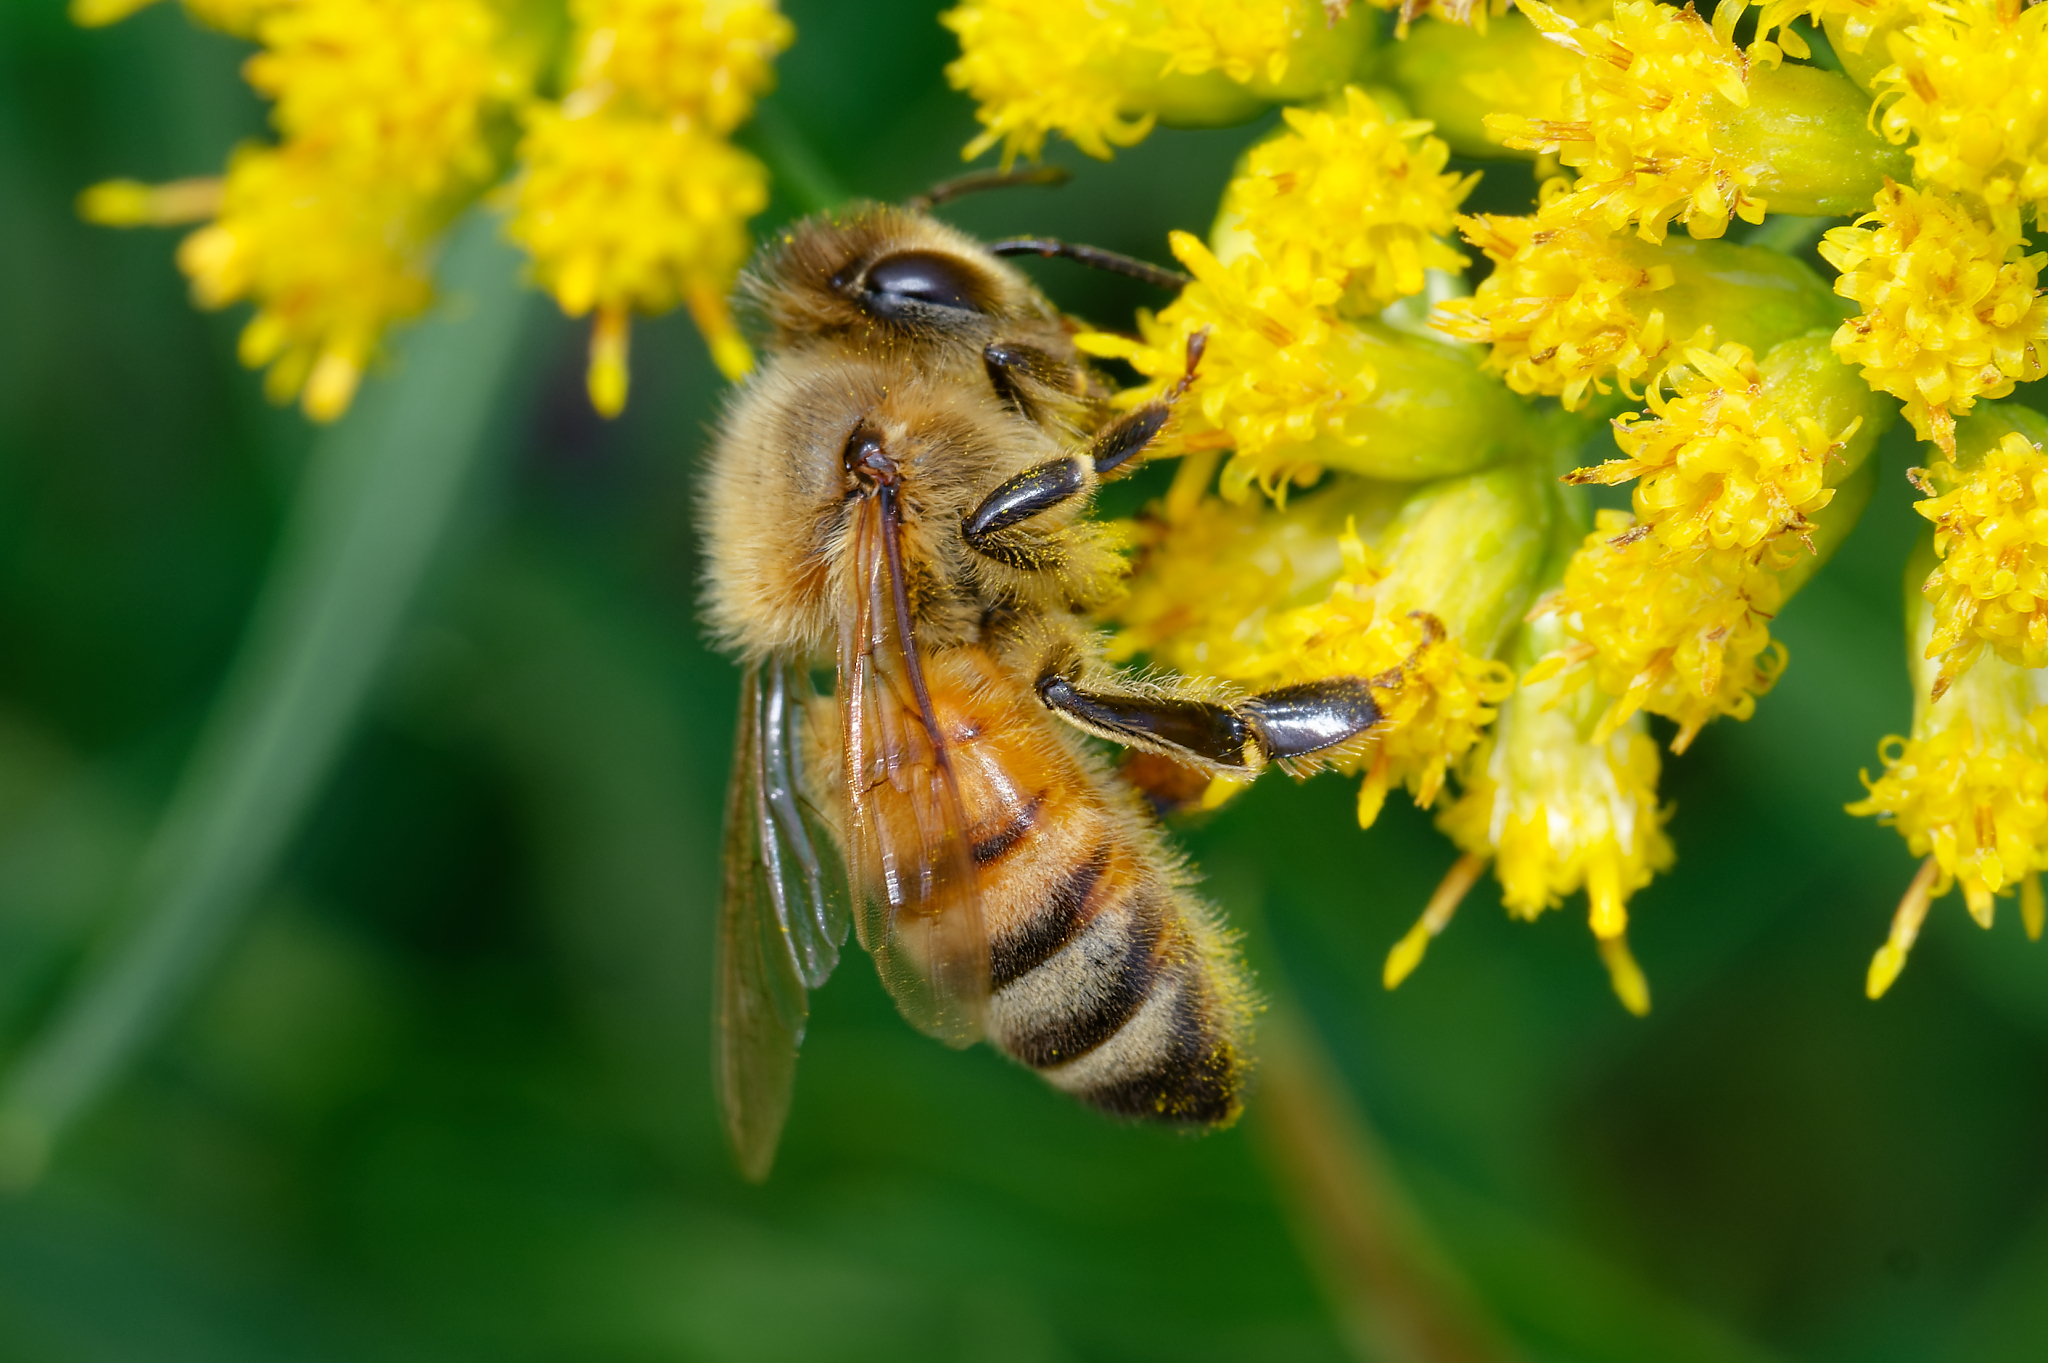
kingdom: Animalia
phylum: Arthropoda
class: Insecta
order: Hymenoptera
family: Apidae
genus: Apis
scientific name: Apis mellifera
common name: Honey bee
